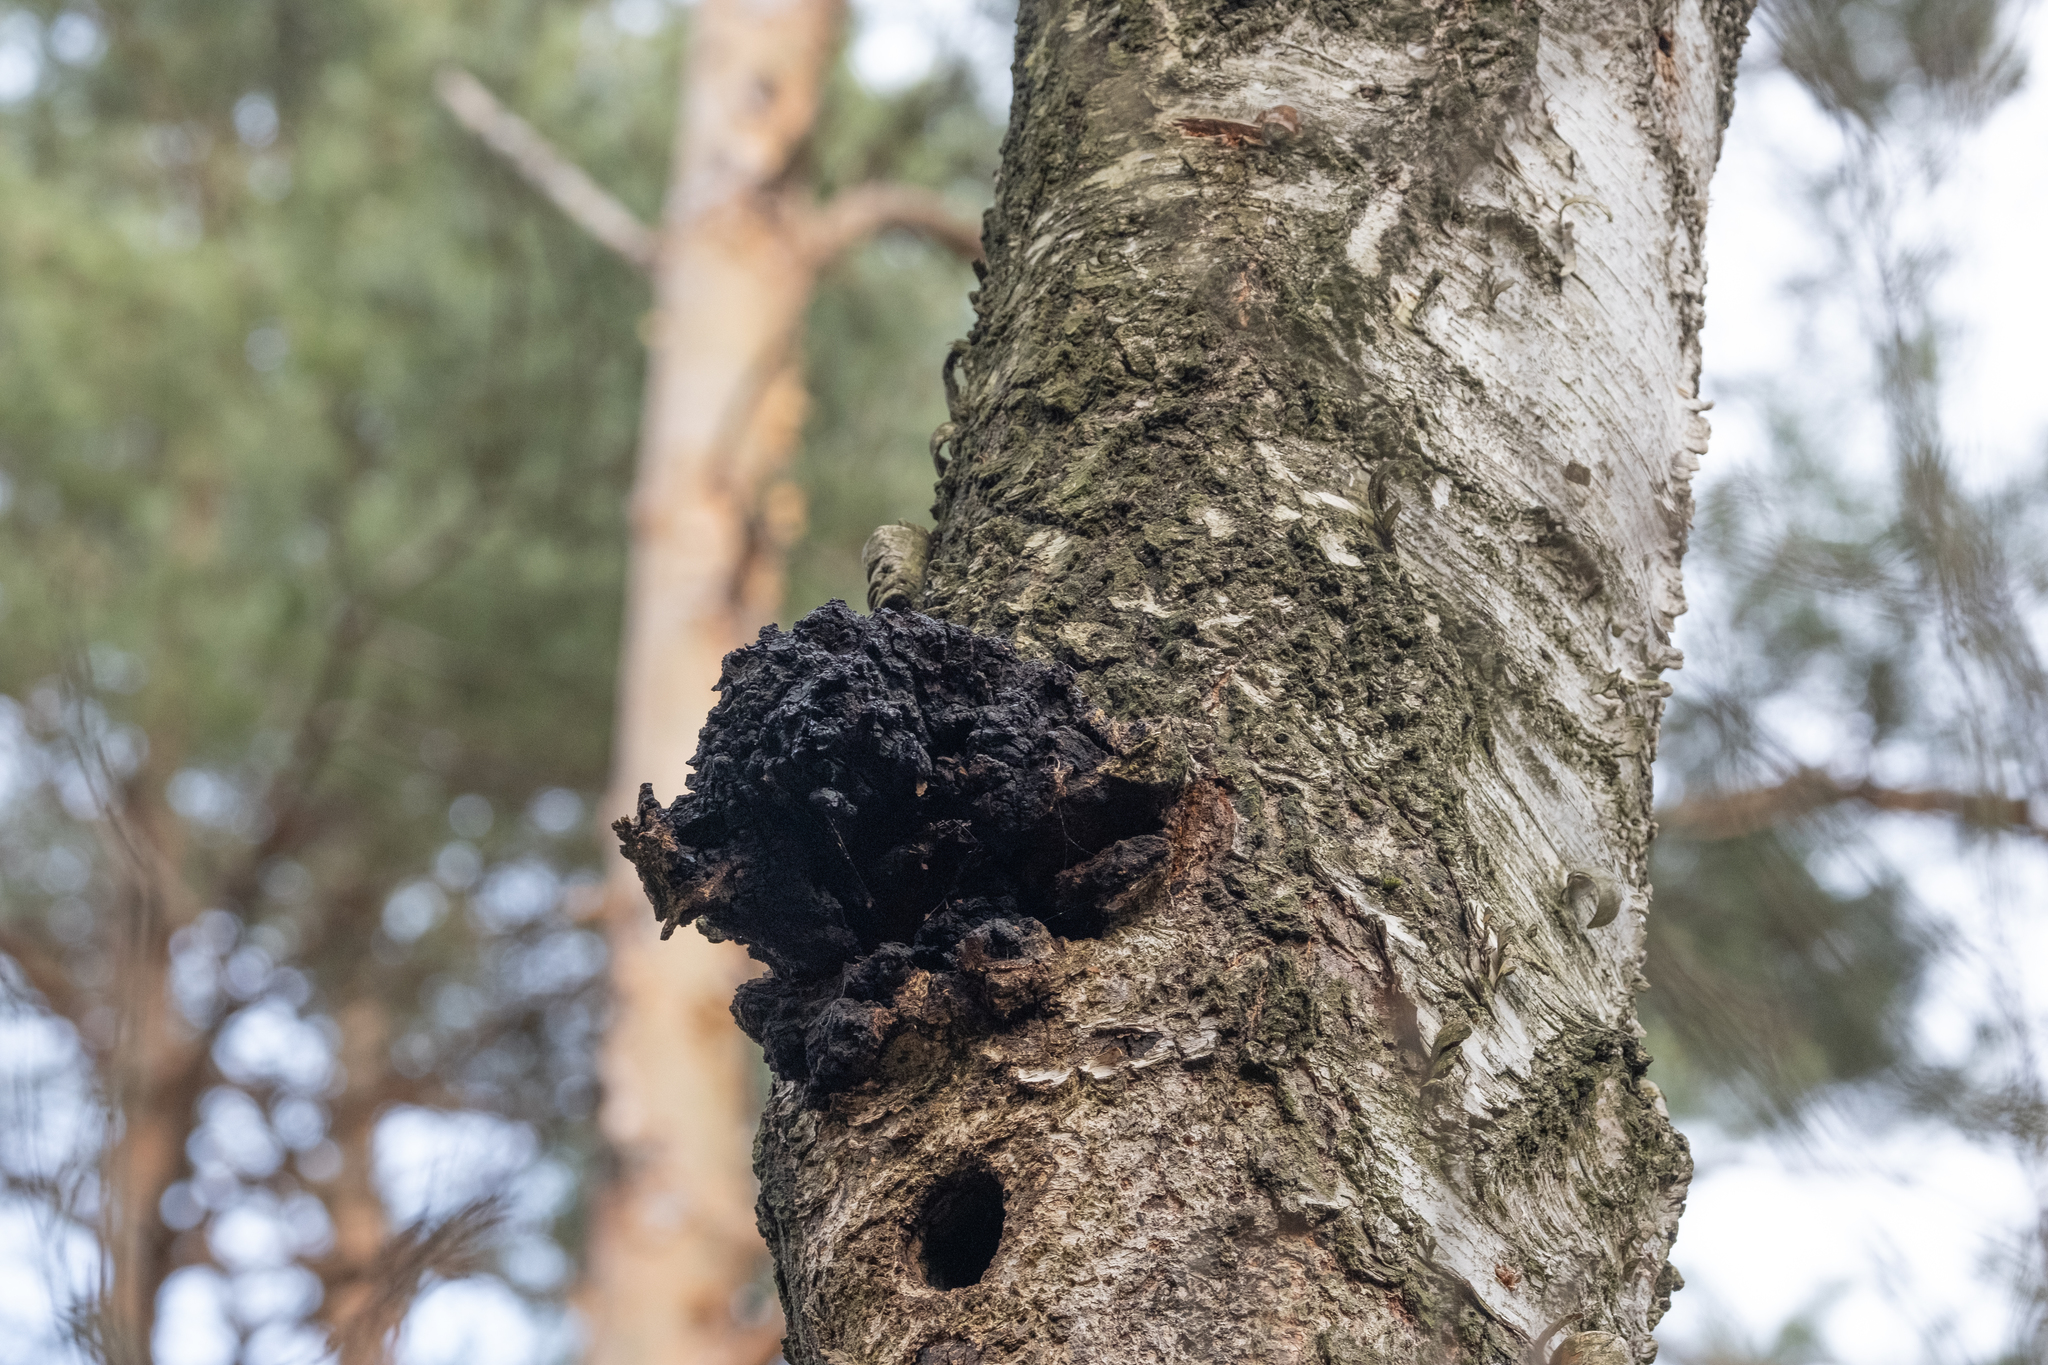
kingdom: Fungi
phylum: Basidiomycota
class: Agaricomycetes
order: Hymenochaetales
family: Hymenochaetaceae
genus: Inonotus
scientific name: Inonotus obliquus
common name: Chaga
